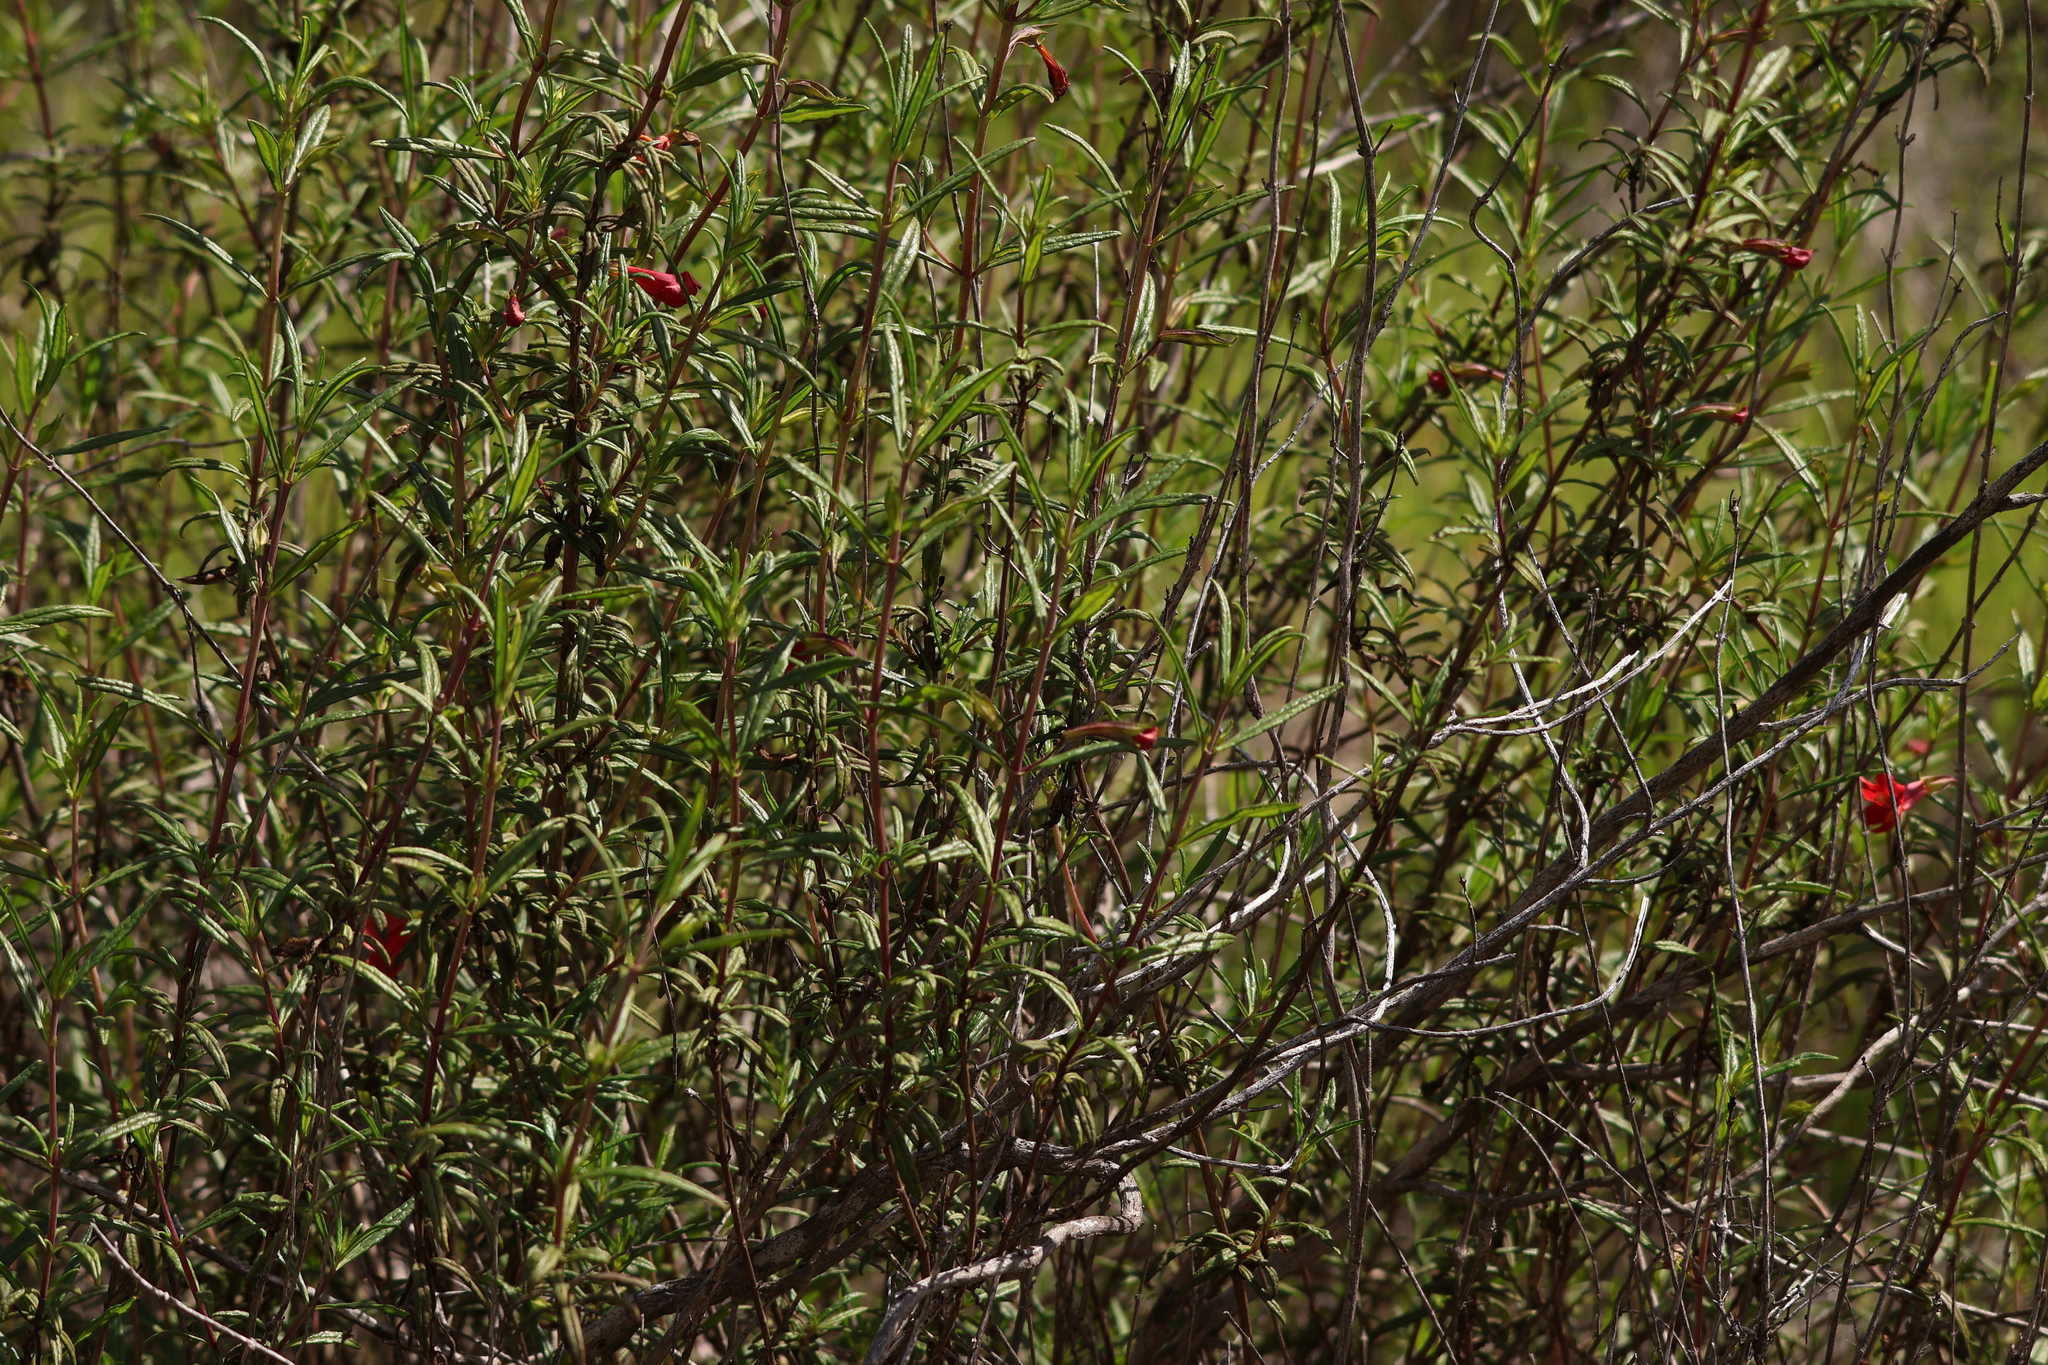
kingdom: Plantae
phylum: Tracheophyta
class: Magnoliopsida
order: Lamiales
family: Phrymaceae
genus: Diplacus
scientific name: Diplacus puniceus
